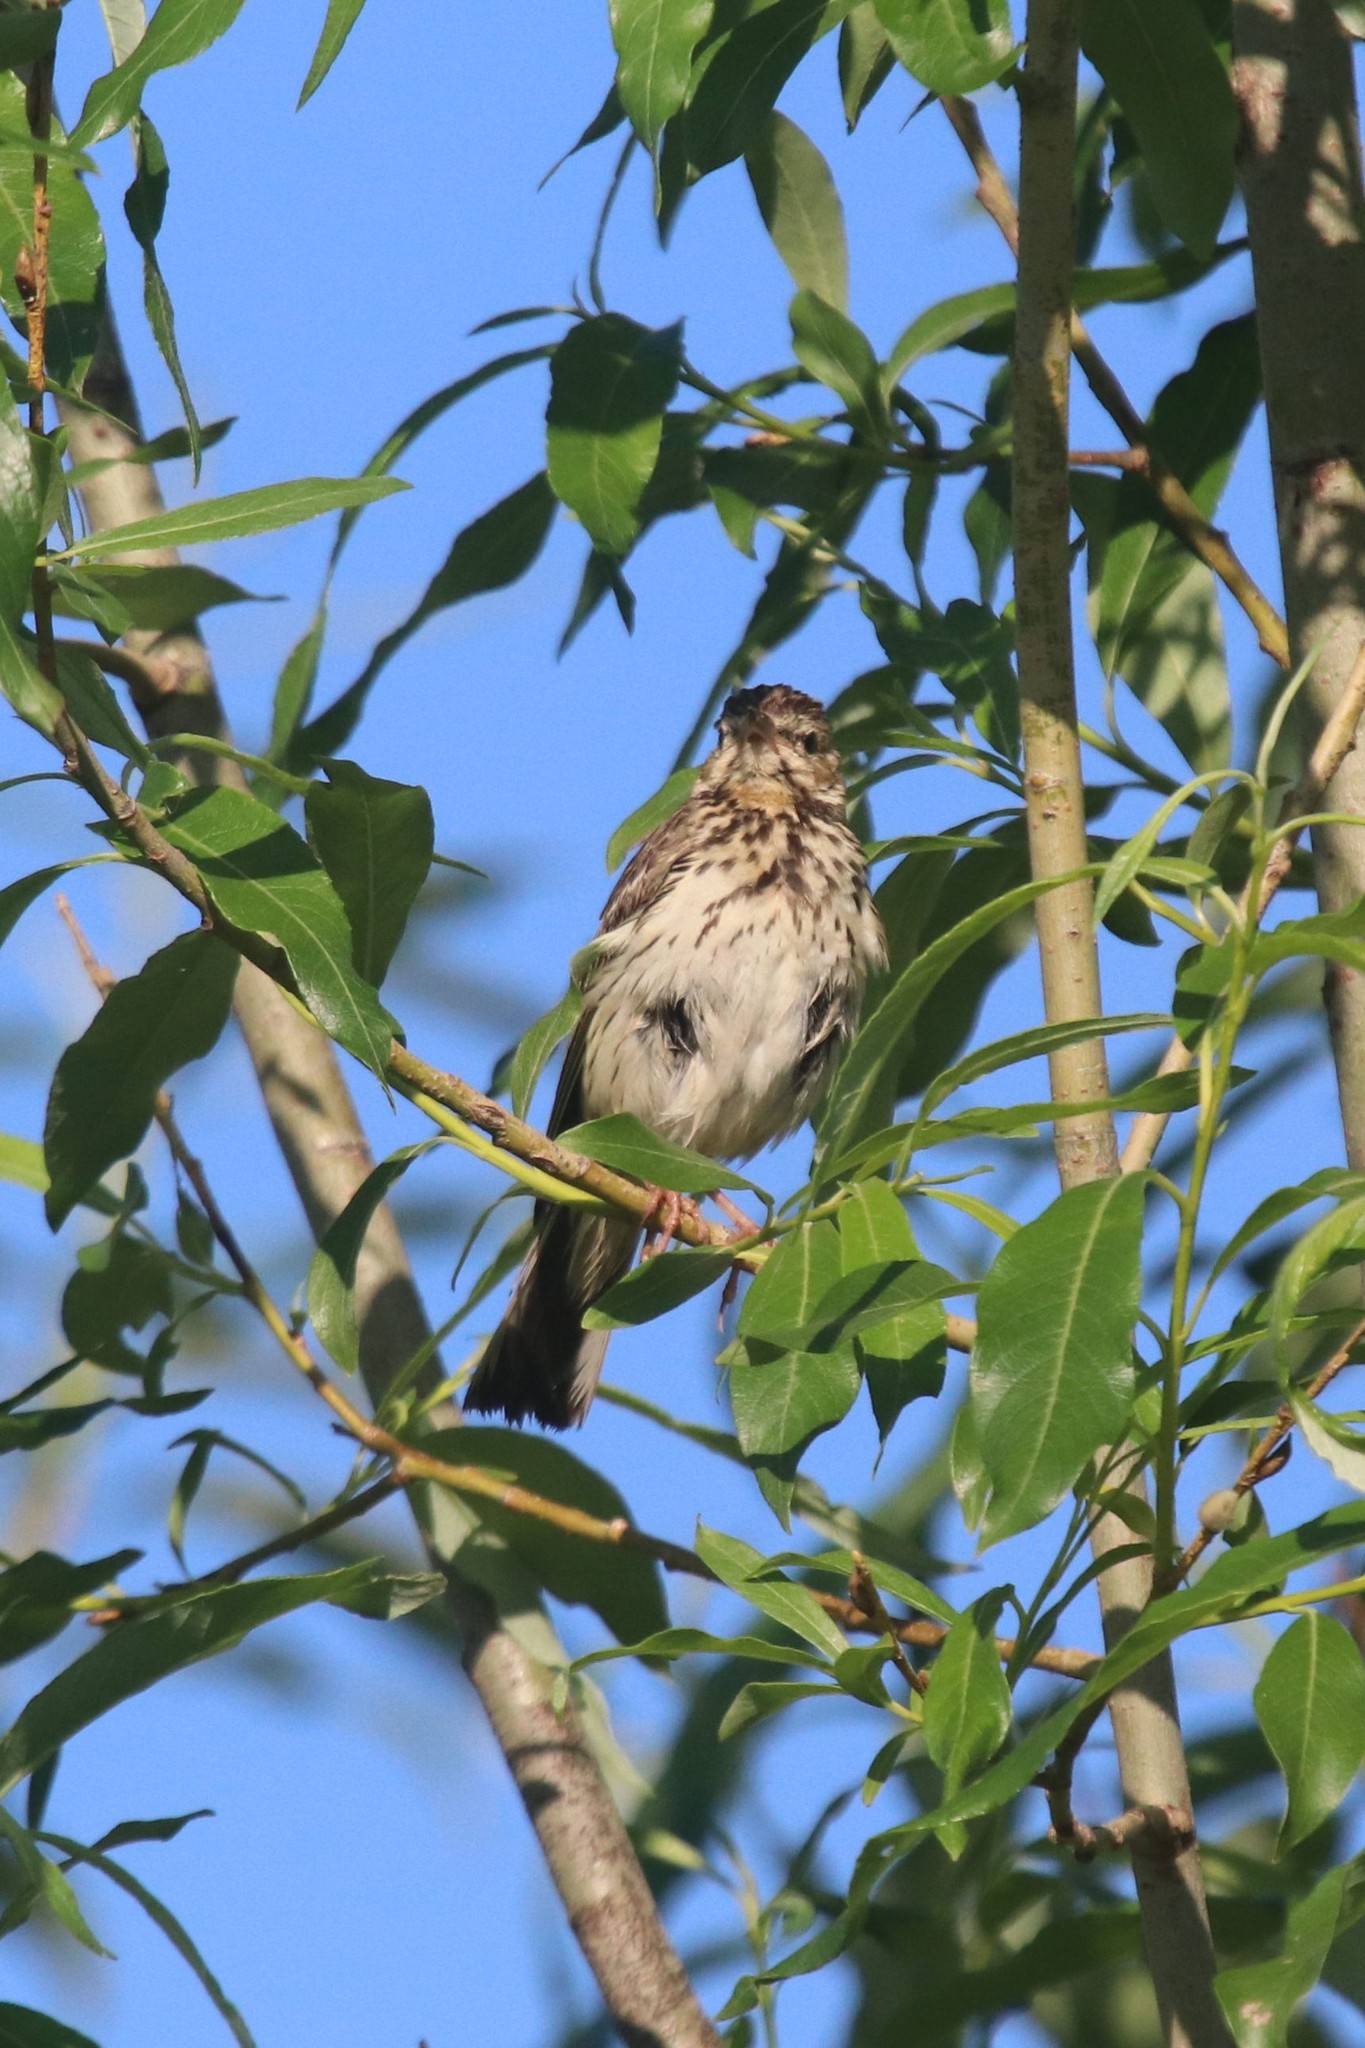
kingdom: Animalia
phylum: Chordata
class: Aves
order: Passeriformes
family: Motacillidae
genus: Anthus
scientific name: Anthus trivialis
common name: Tree pipit
